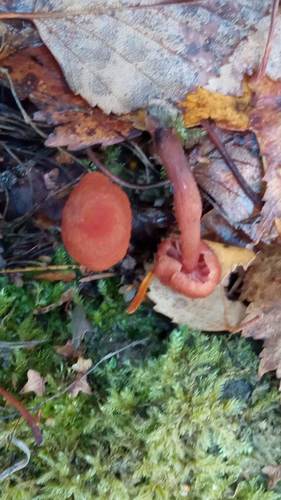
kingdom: Fungi
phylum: Basidiomycota
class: Agaricomycetes
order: Agaricales
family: Hydnangiaceae
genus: Laccaria
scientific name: Laccaria
